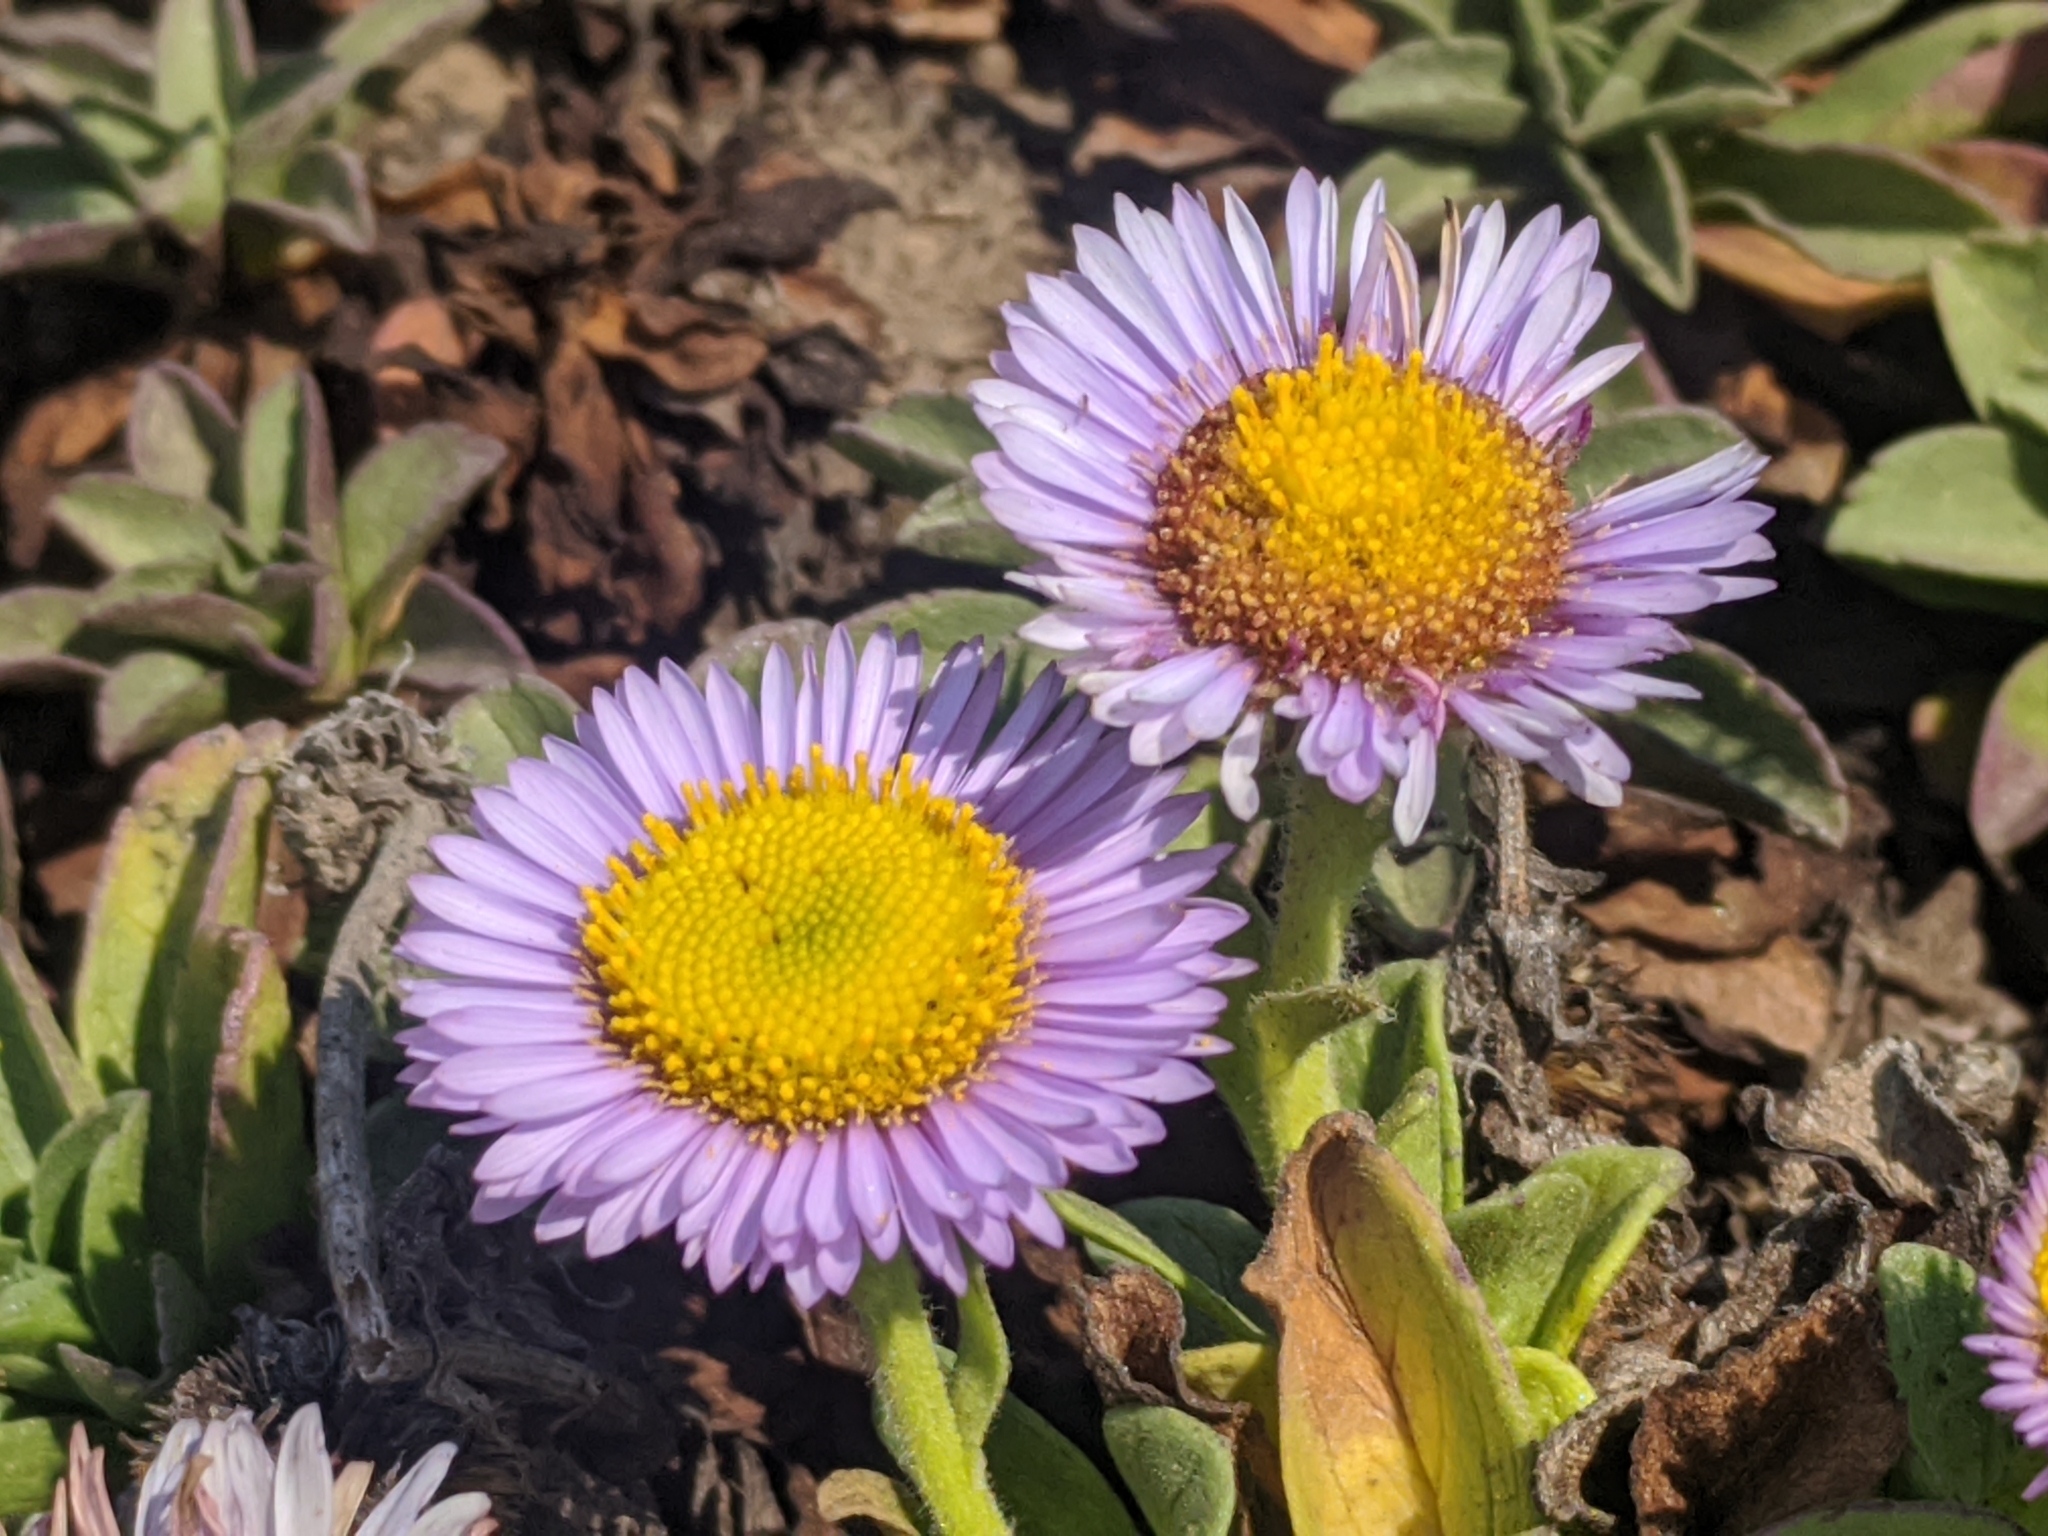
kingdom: Plantae
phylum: Tracheophyta
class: Magnoliopsida
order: Asterales
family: Asteraceae
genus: Erigeron
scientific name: Erigeron glaucus
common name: Seaside daisy
